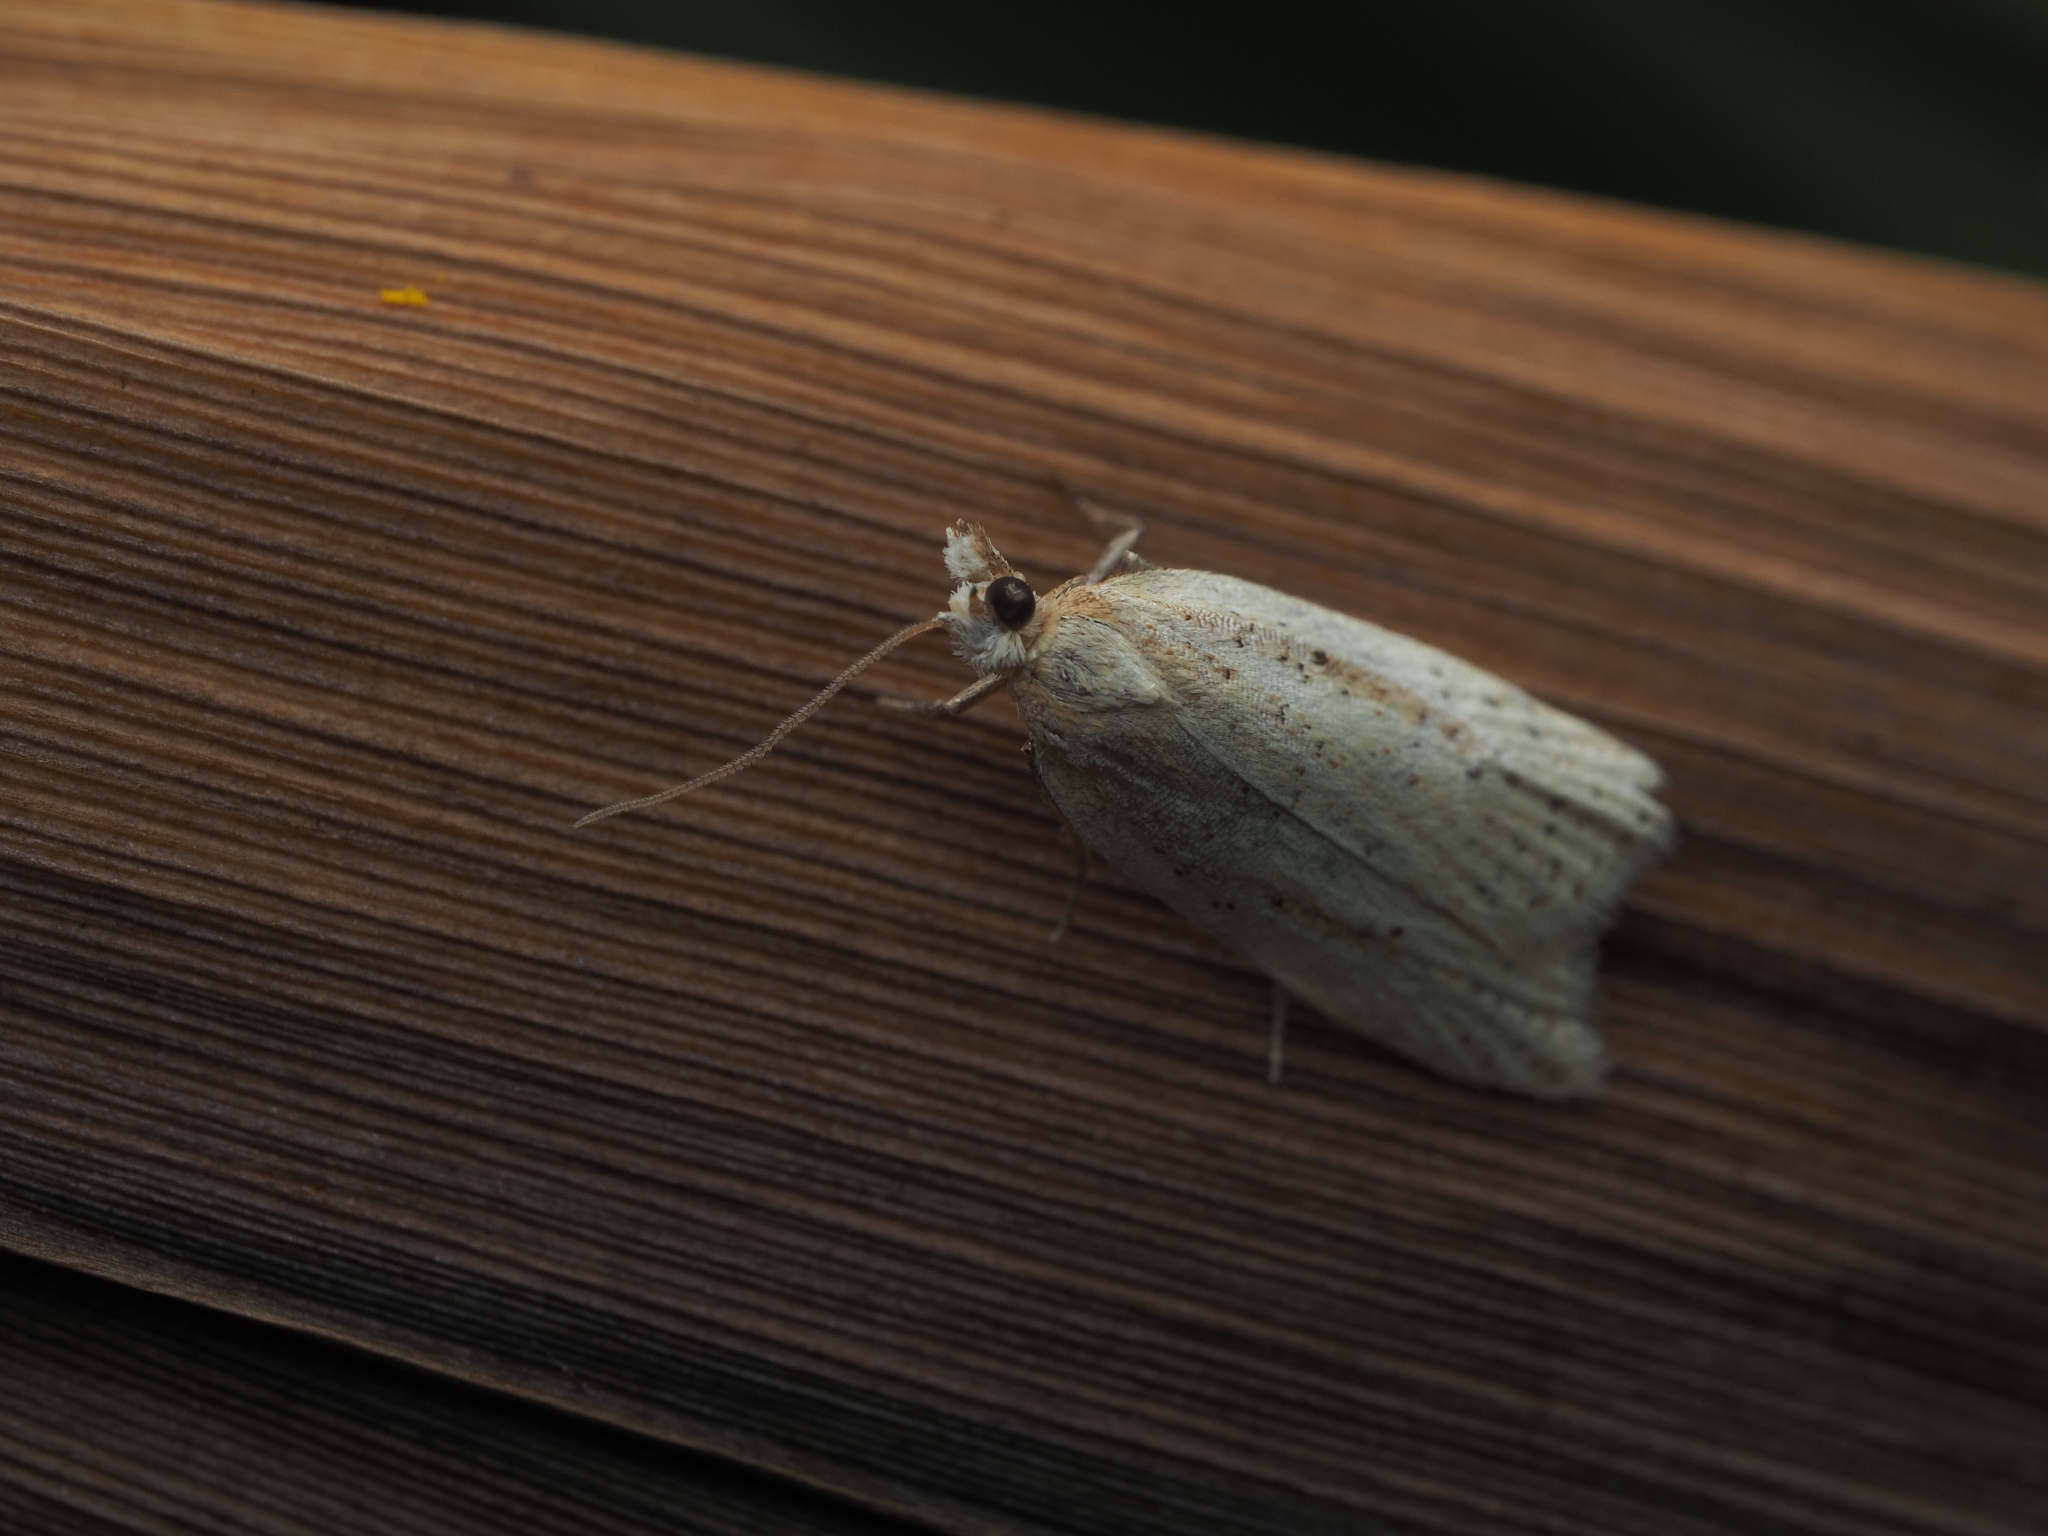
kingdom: Animalia
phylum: Arthropoda
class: Insecta
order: Lepidoptera
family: Tortricidae
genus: Clepsis
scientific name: Clepsis
